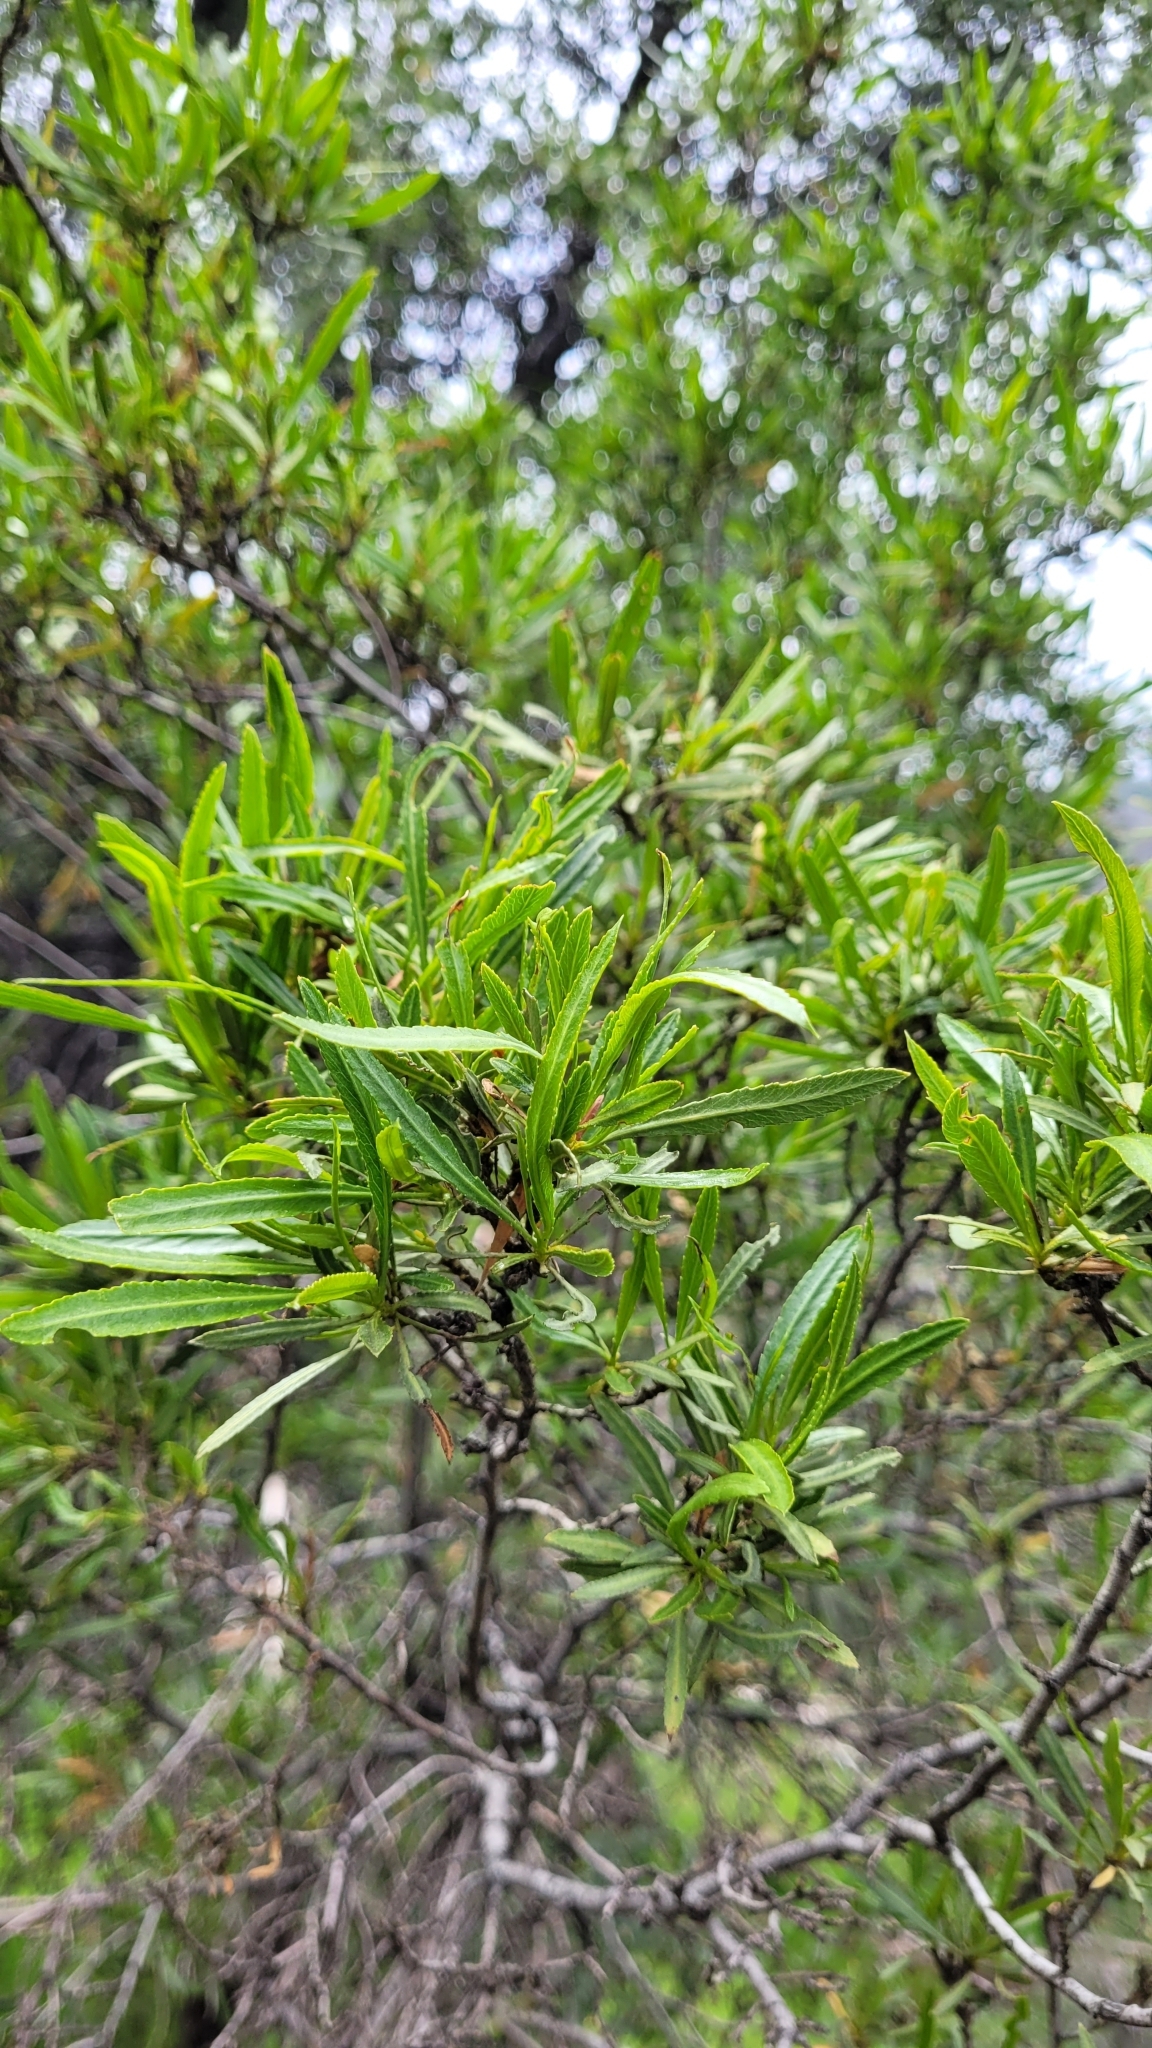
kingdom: Plantae
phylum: Tracheophyta
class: Magnoliopsida
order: Rosales
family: Rosaceae
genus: Kageneckia
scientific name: Kageneckia angustifolia
